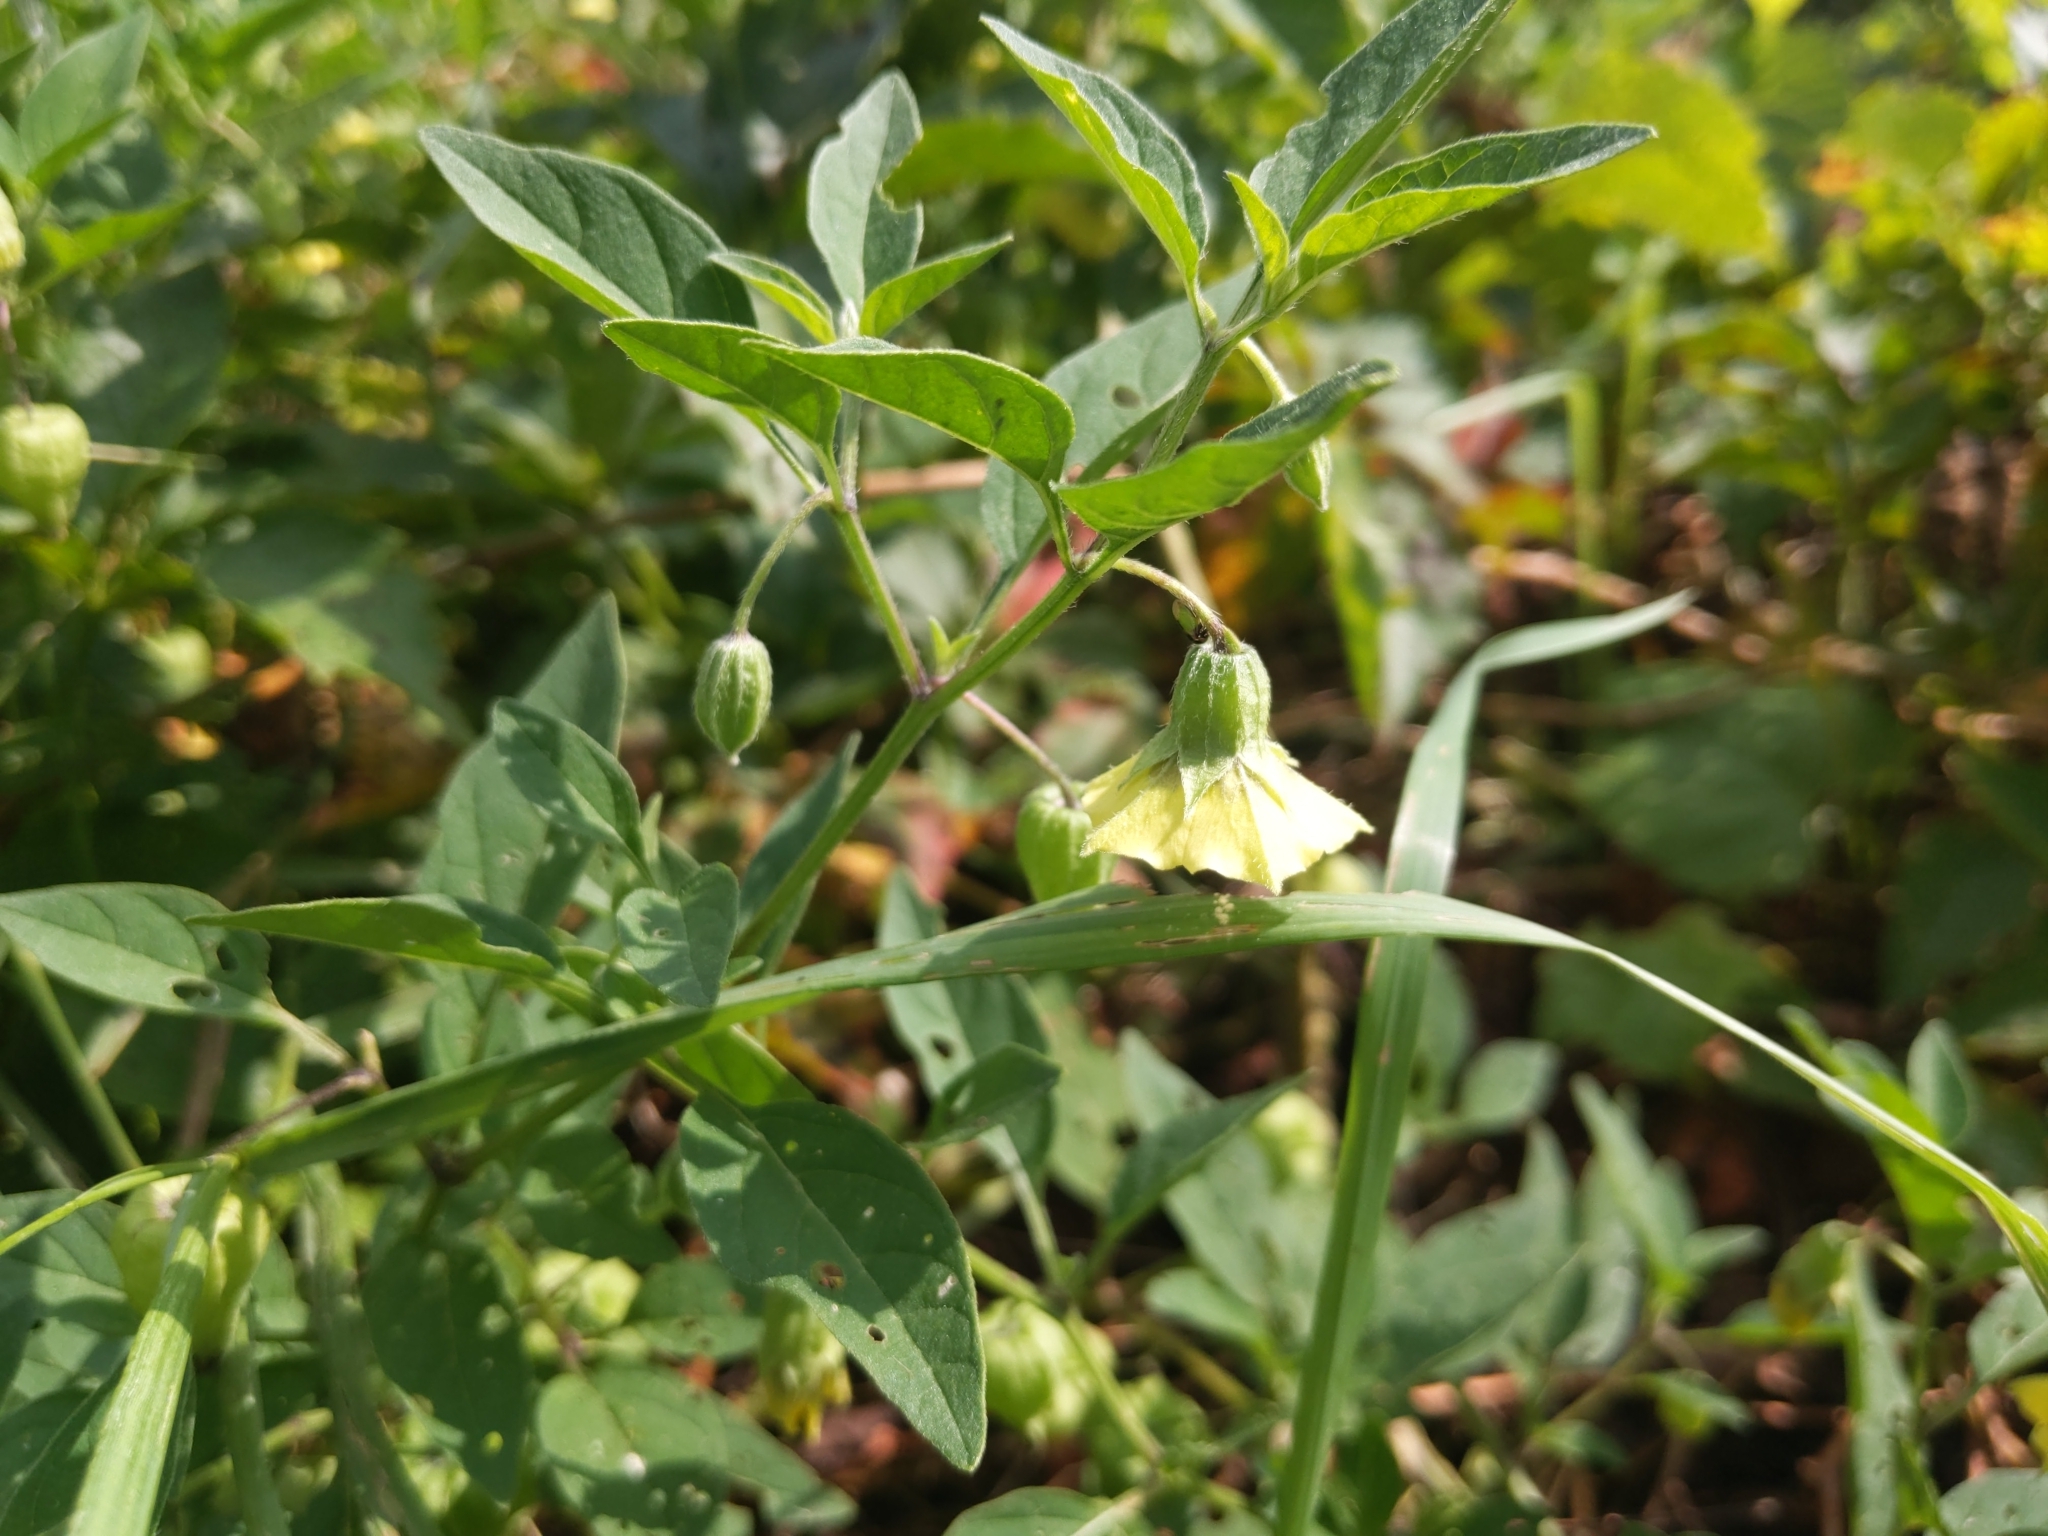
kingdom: Plantae
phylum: Tracheophyta
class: Magnoliopsida
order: Solanales
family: Solanaceae
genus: Physalis
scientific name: Physalis longifolia
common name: Common ground-cherry
